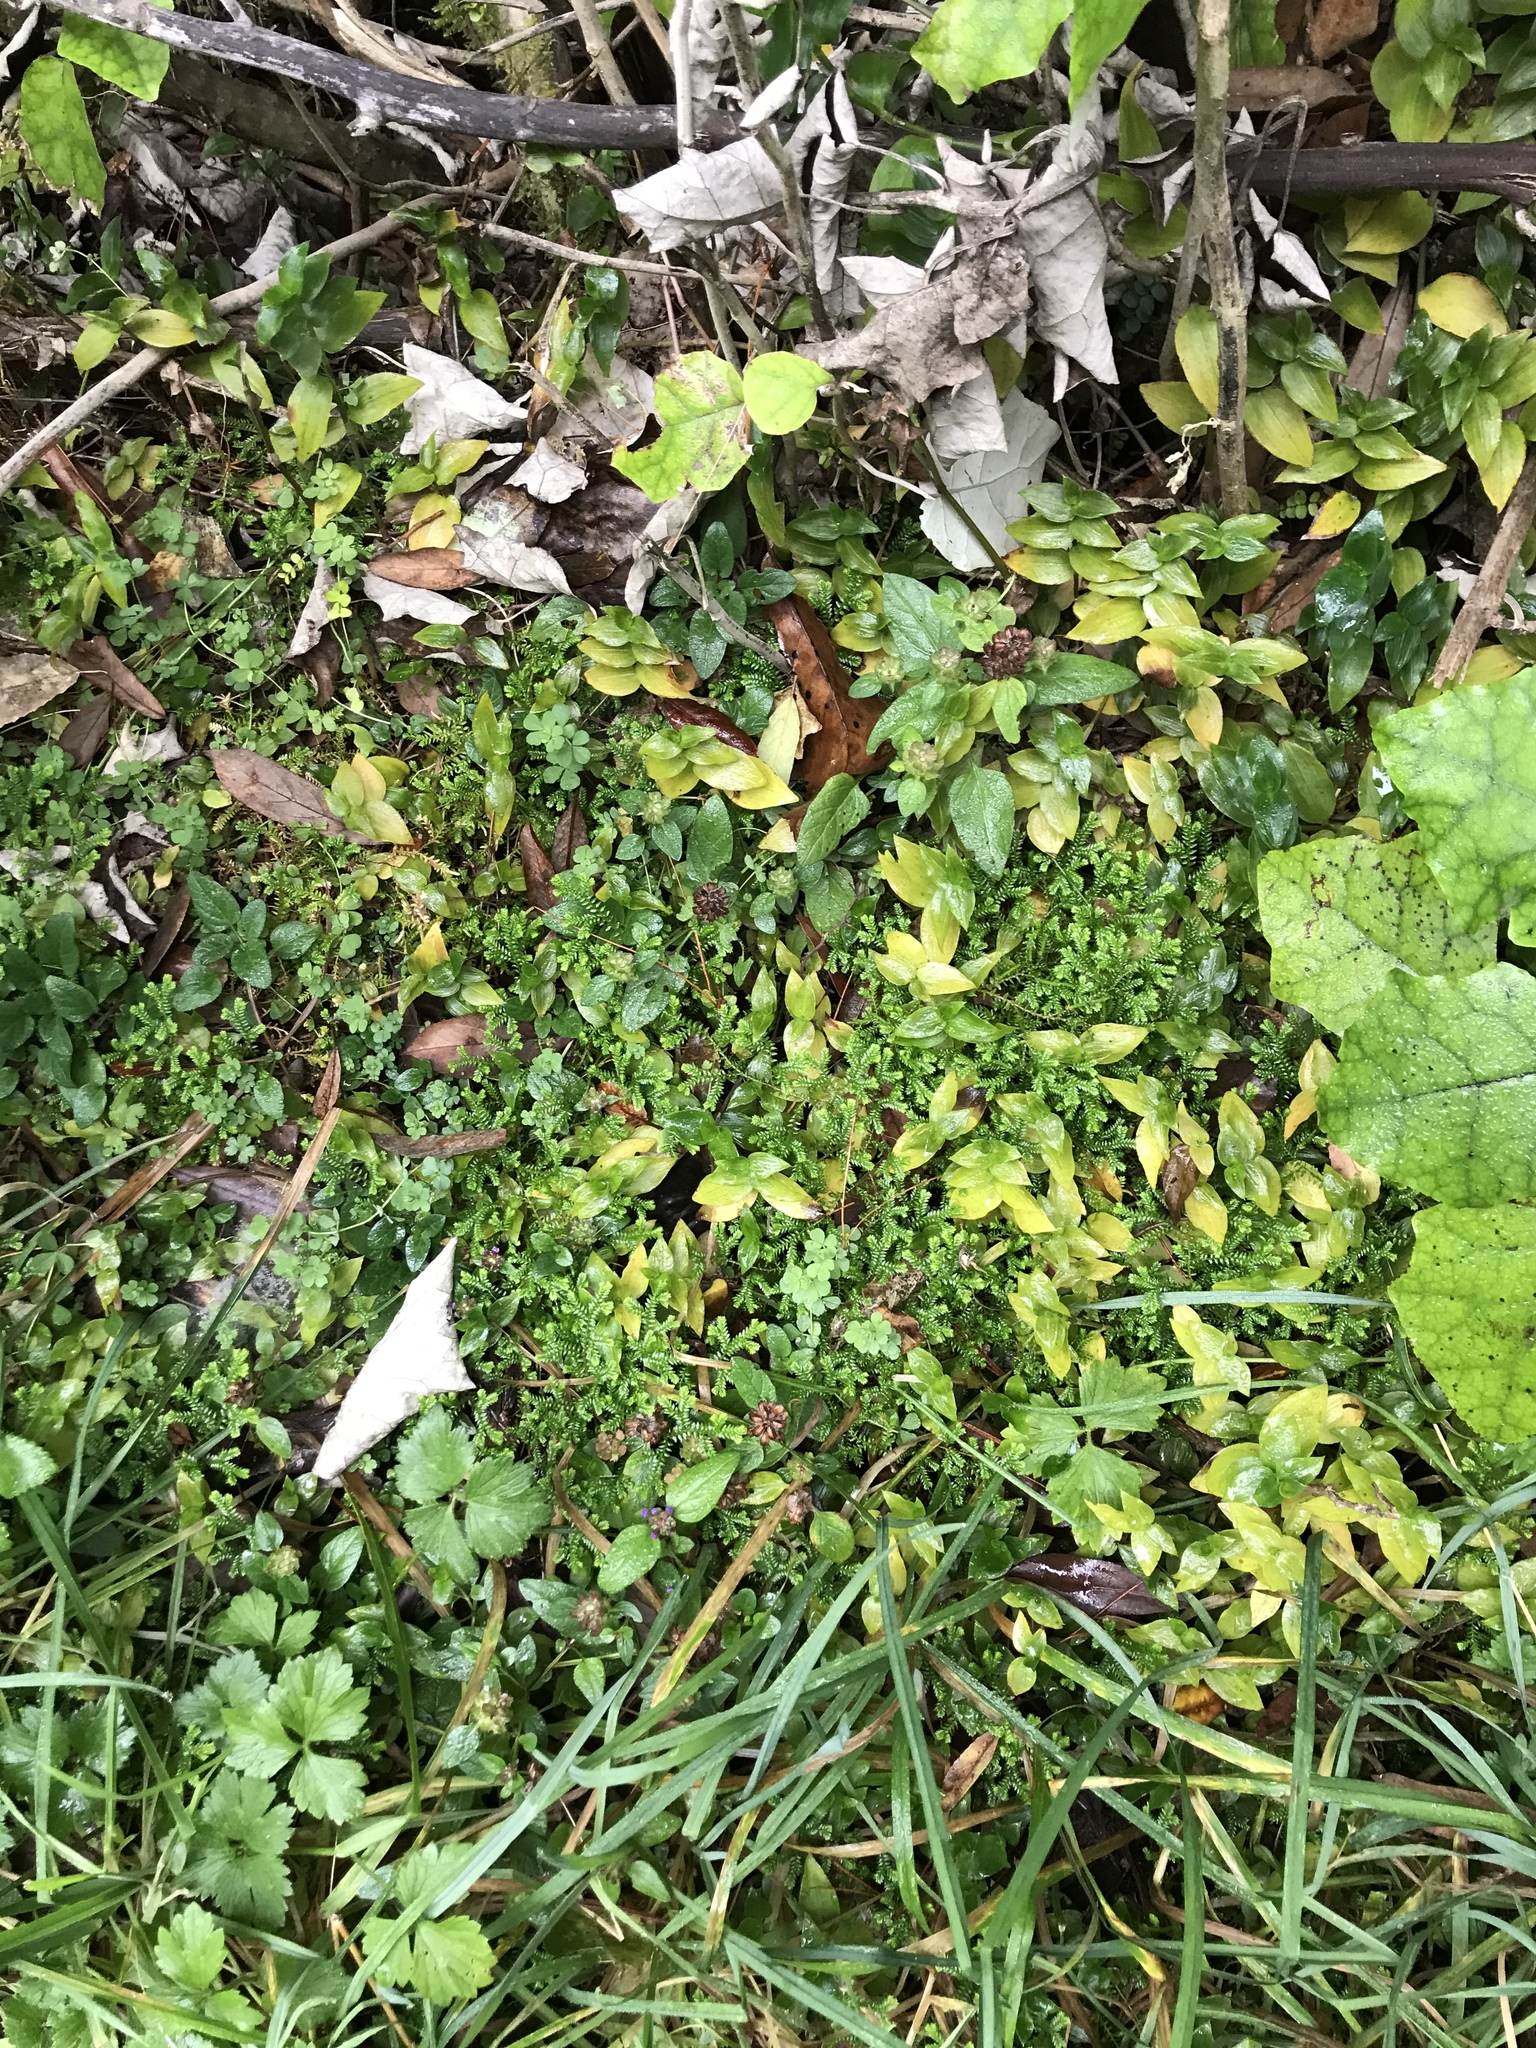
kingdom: Plantae
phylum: Tracheophyta
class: Lycopodiopsida
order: Selaginellales
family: Selaginellaceae
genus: Selaginella
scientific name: Selaginella kraussiana
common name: Krauss' spikemoss
